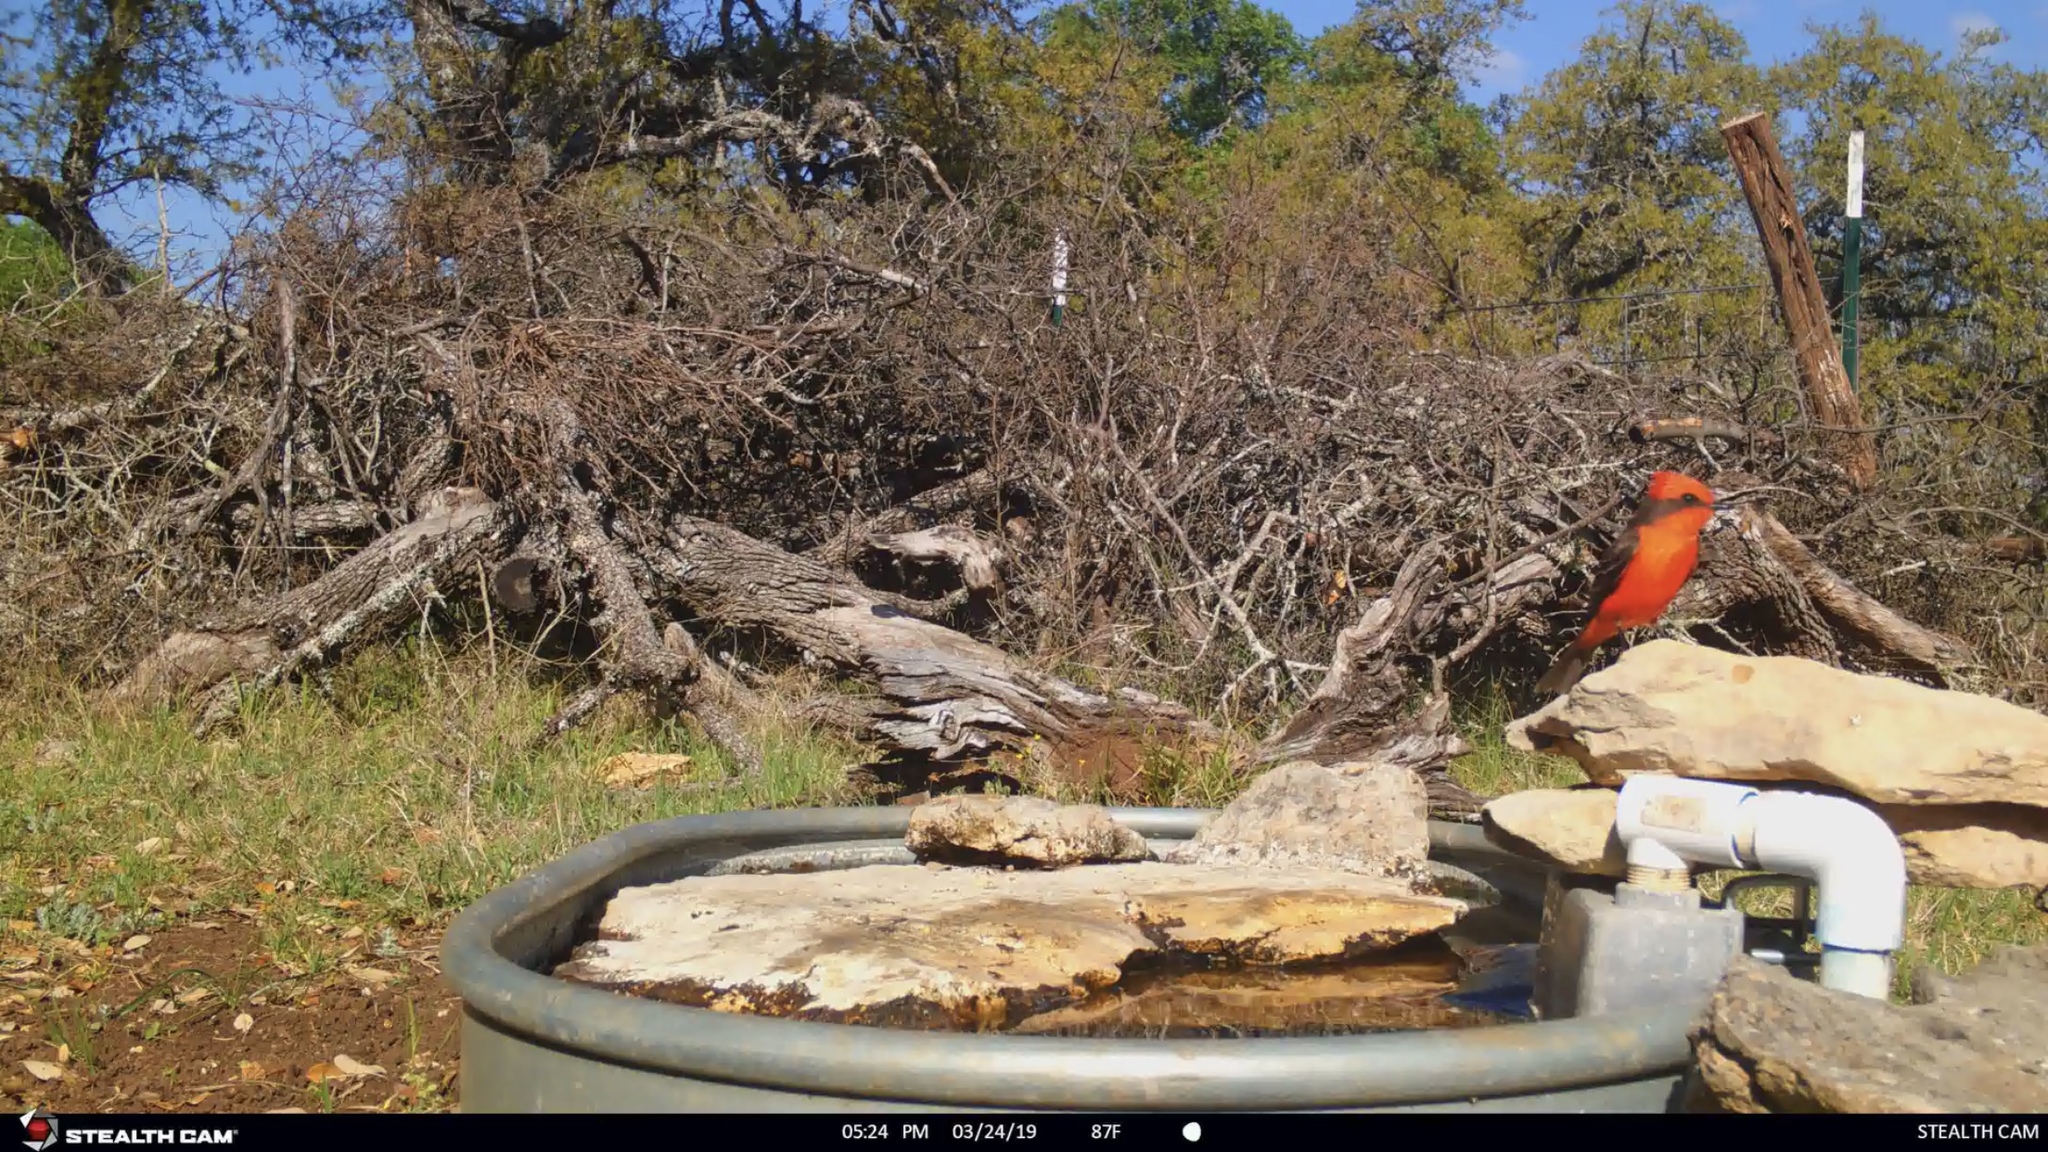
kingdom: Animalia
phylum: Chordata
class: Aves
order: Passeriformes
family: Tyrannidae
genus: Pyrocephalus
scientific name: Pyrocephalus rubinus
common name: Vermilion flycatcher
